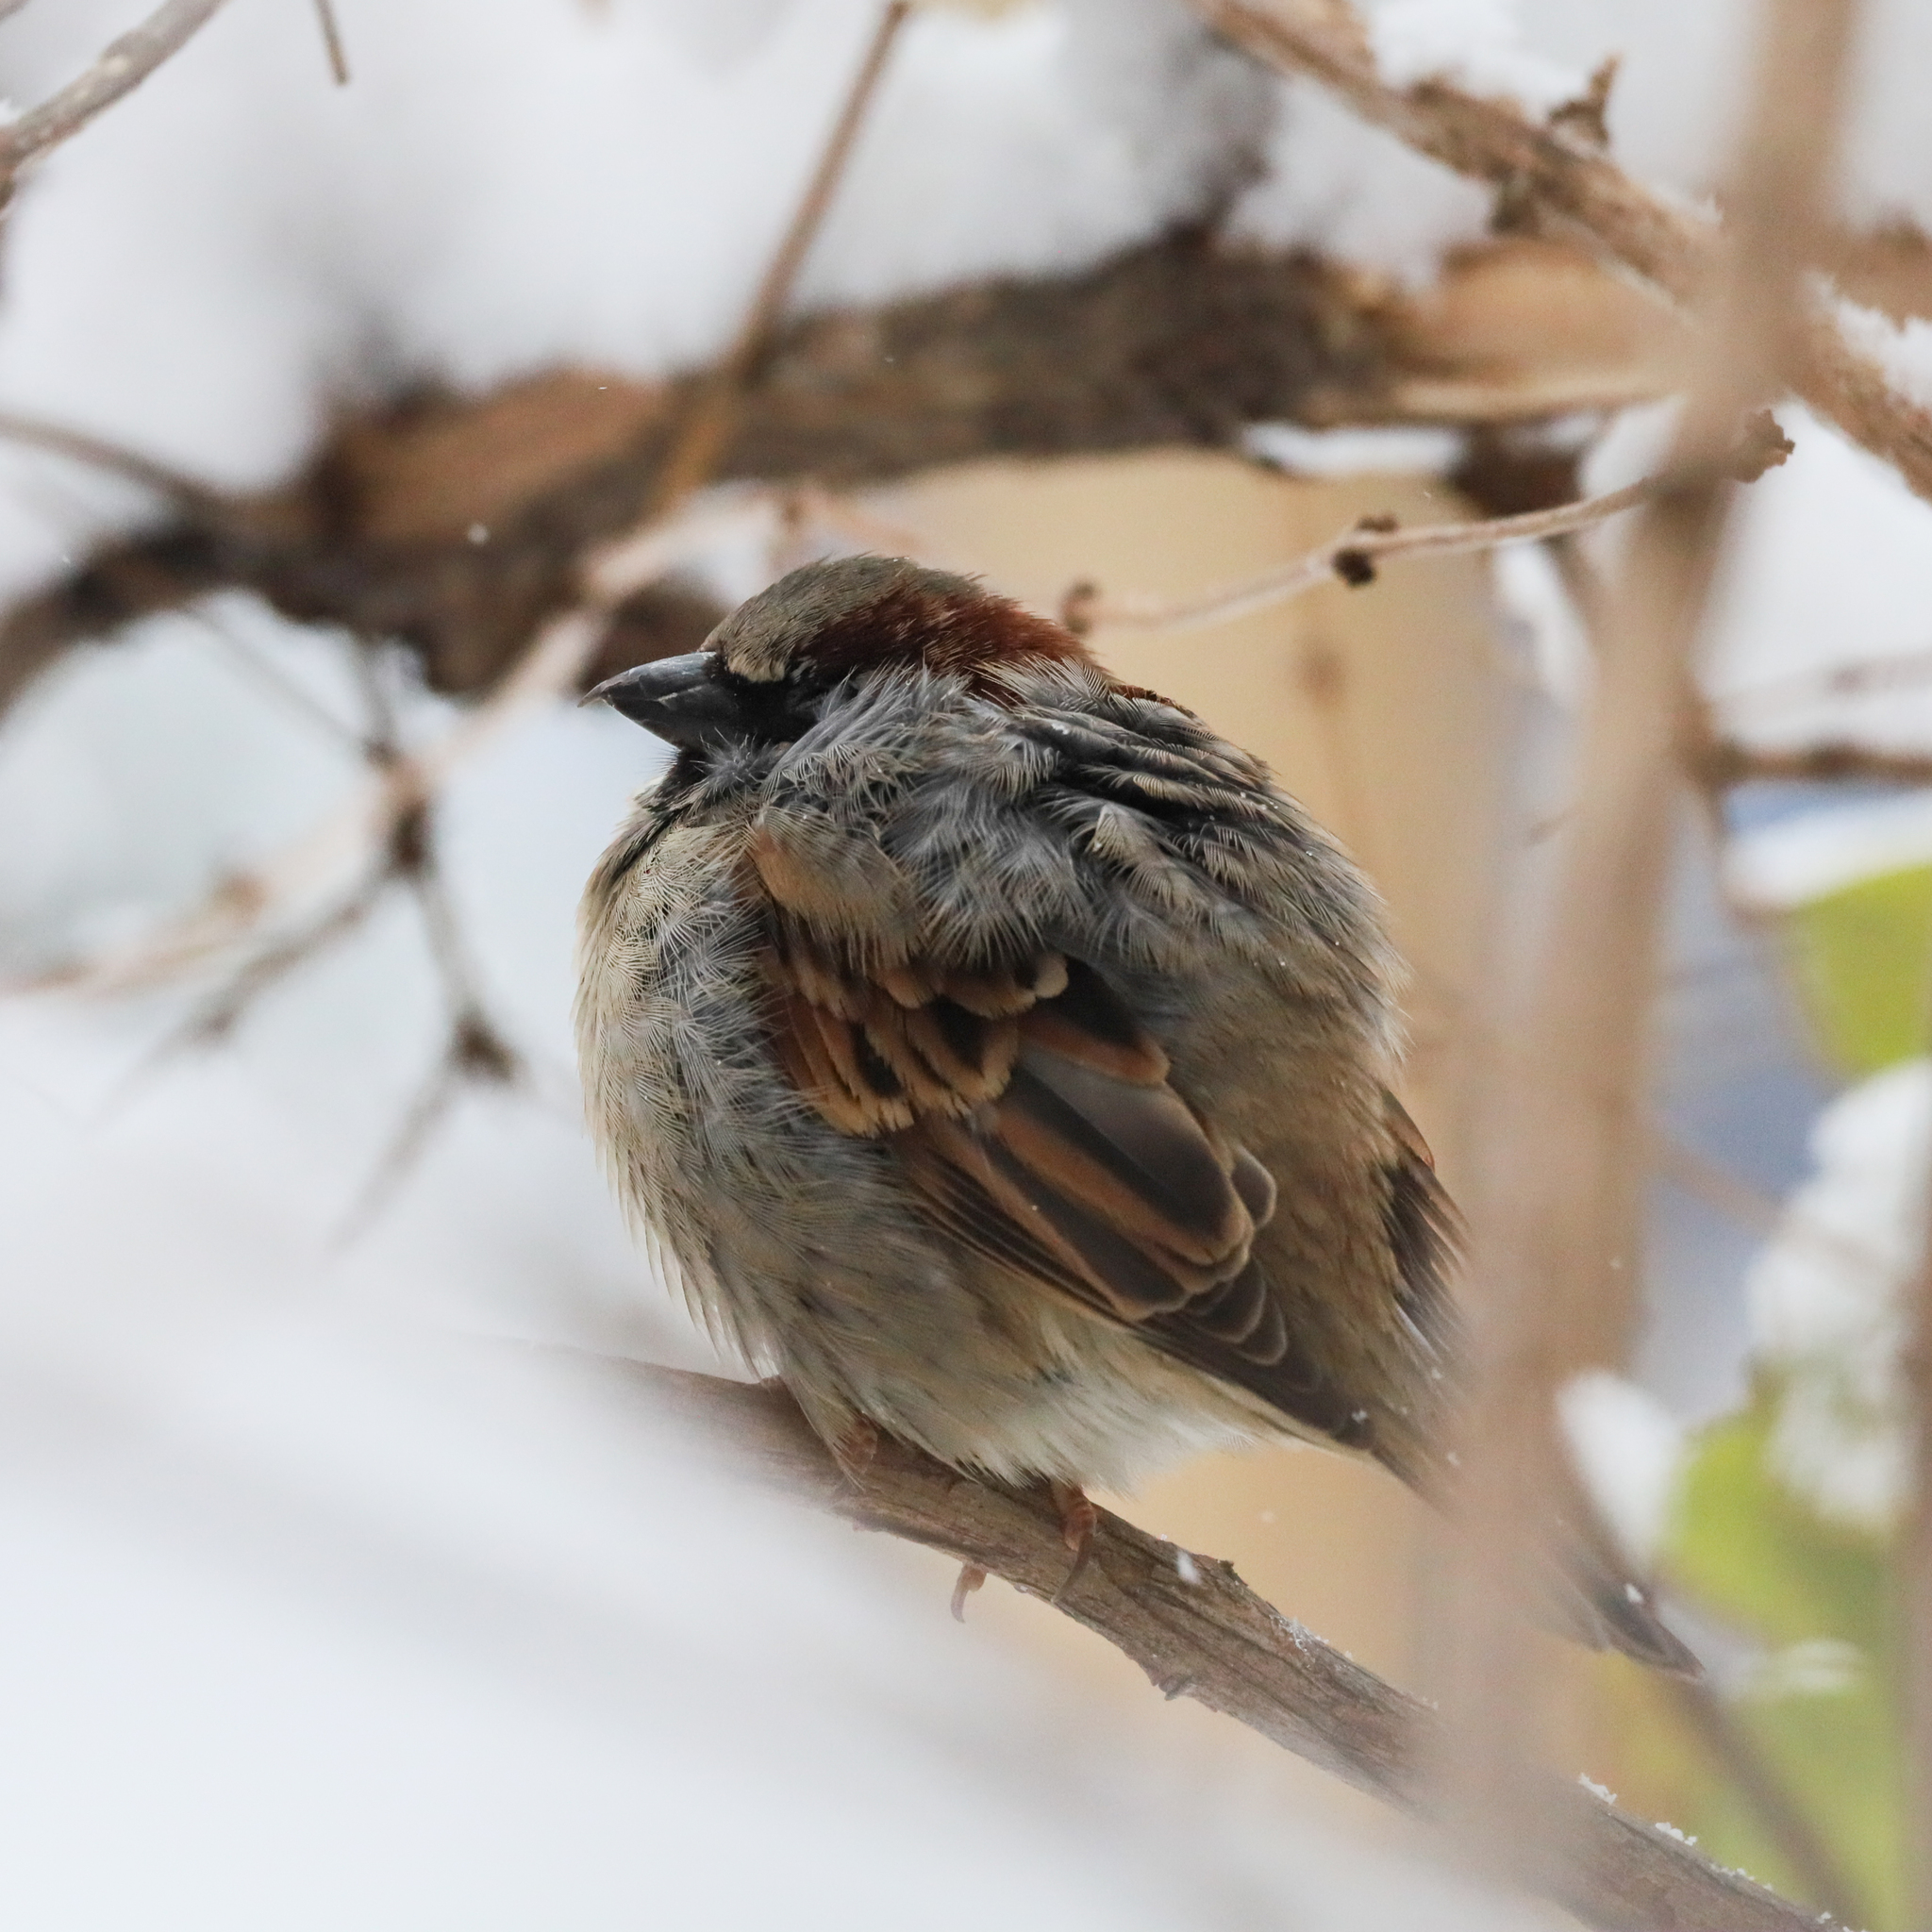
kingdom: Animalia
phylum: Chordata
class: Aves
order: Passeriformes
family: Passeridae
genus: Passer
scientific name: Passer domesticus
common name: House sparrow
